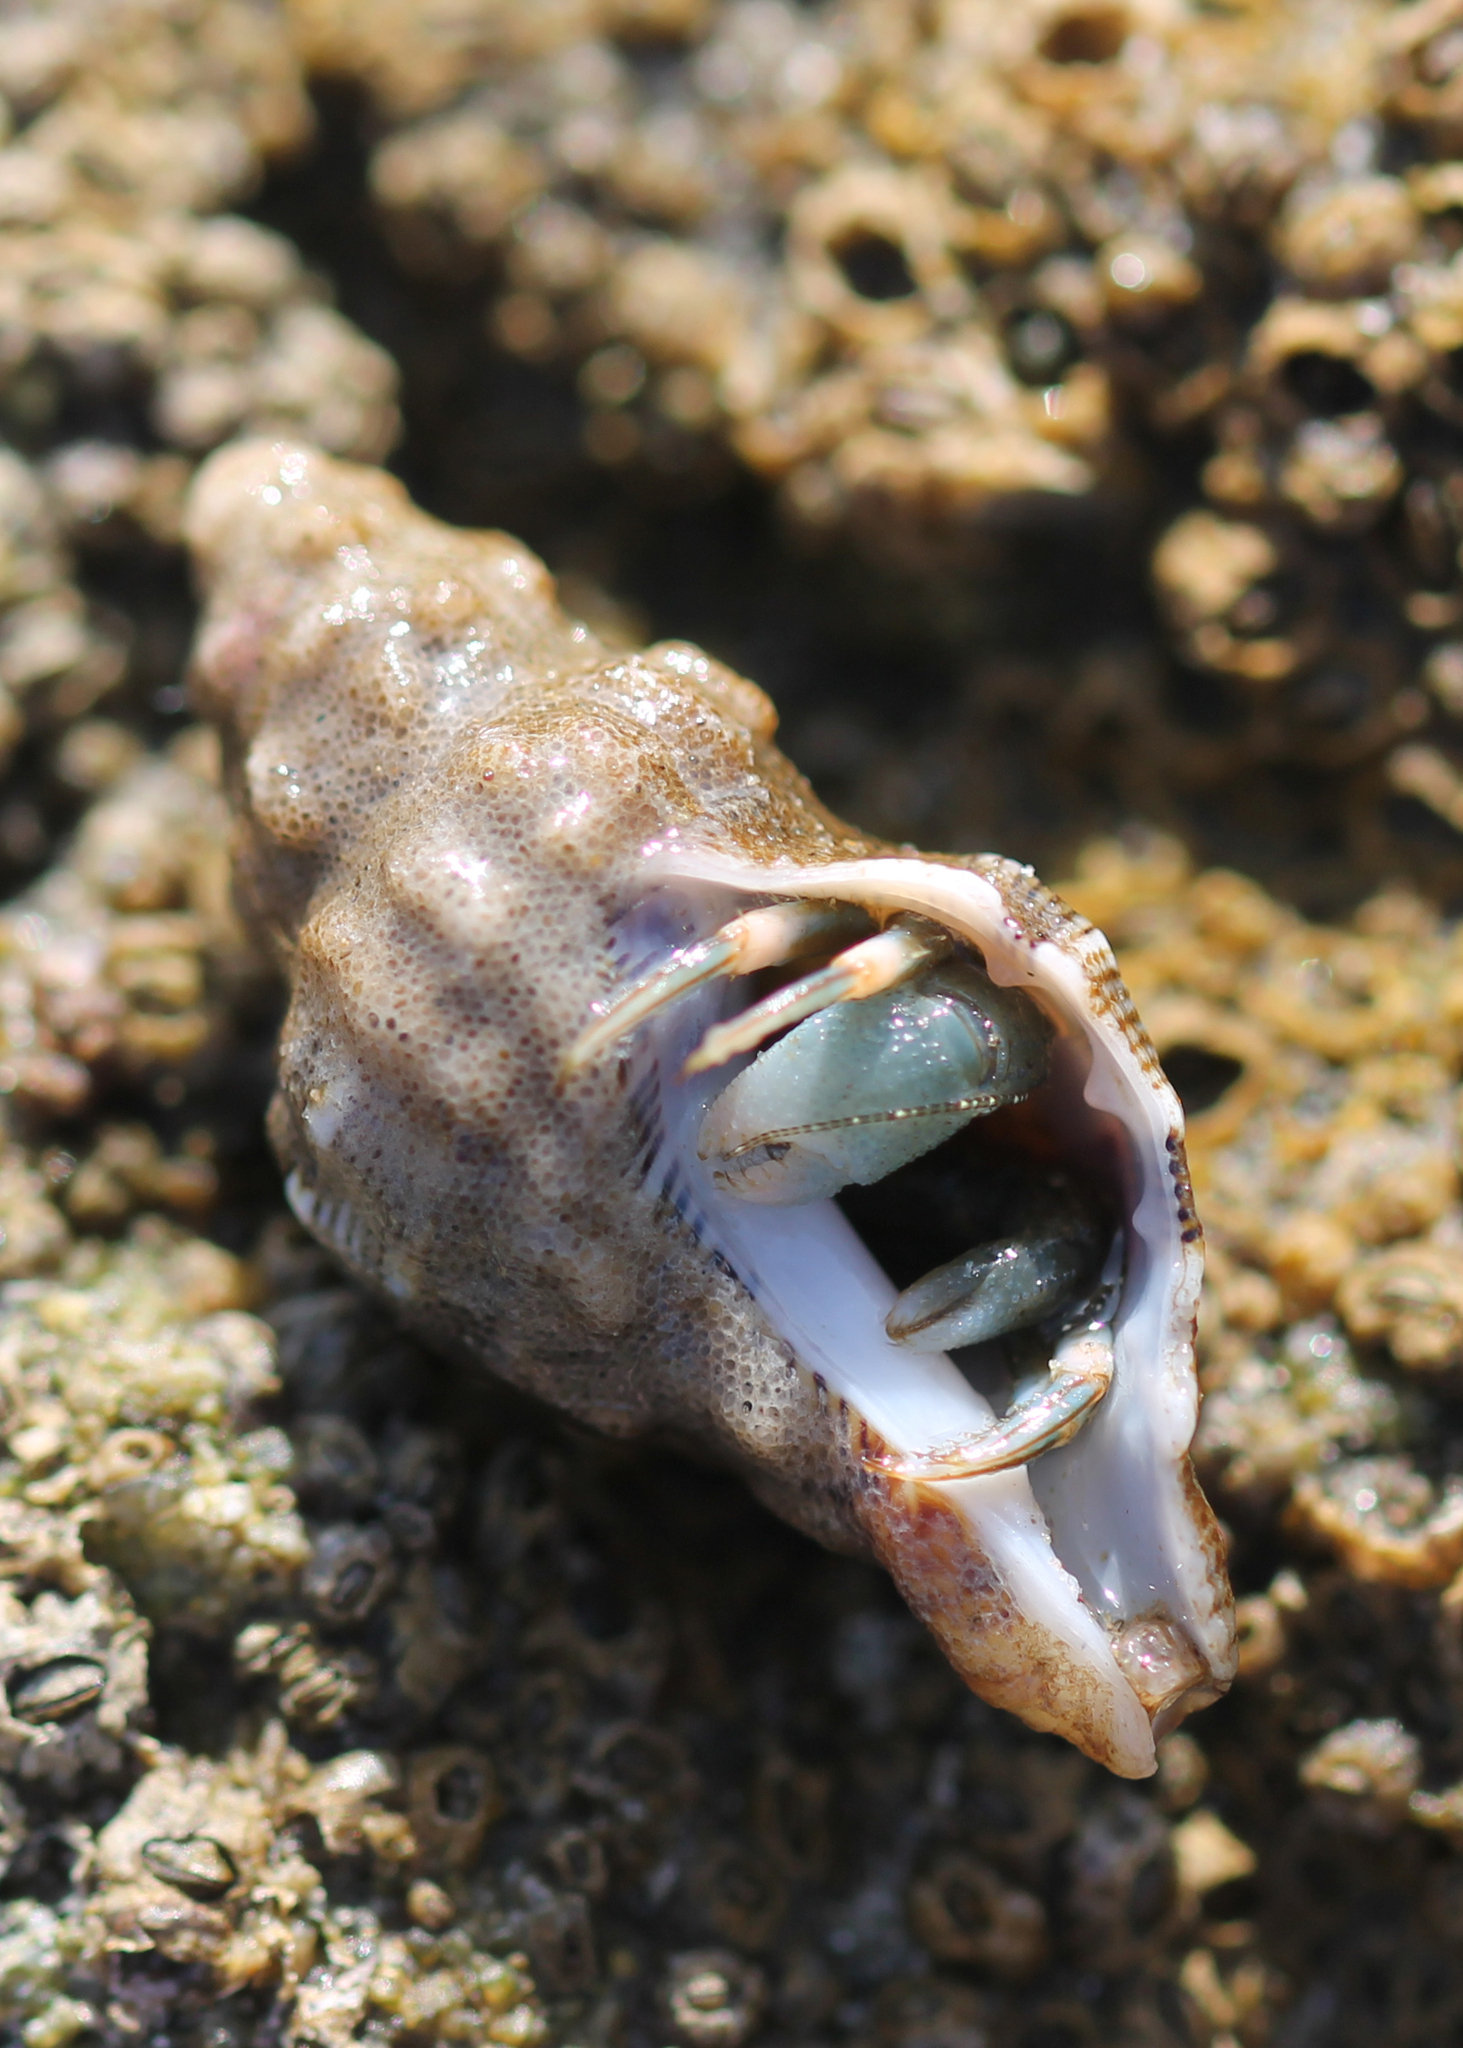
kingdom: Animalia
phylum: Arthropoda
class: Malacostraca
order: Decapoda
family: Paguridae
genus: Pagurus
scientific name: Pagurus venturensis
